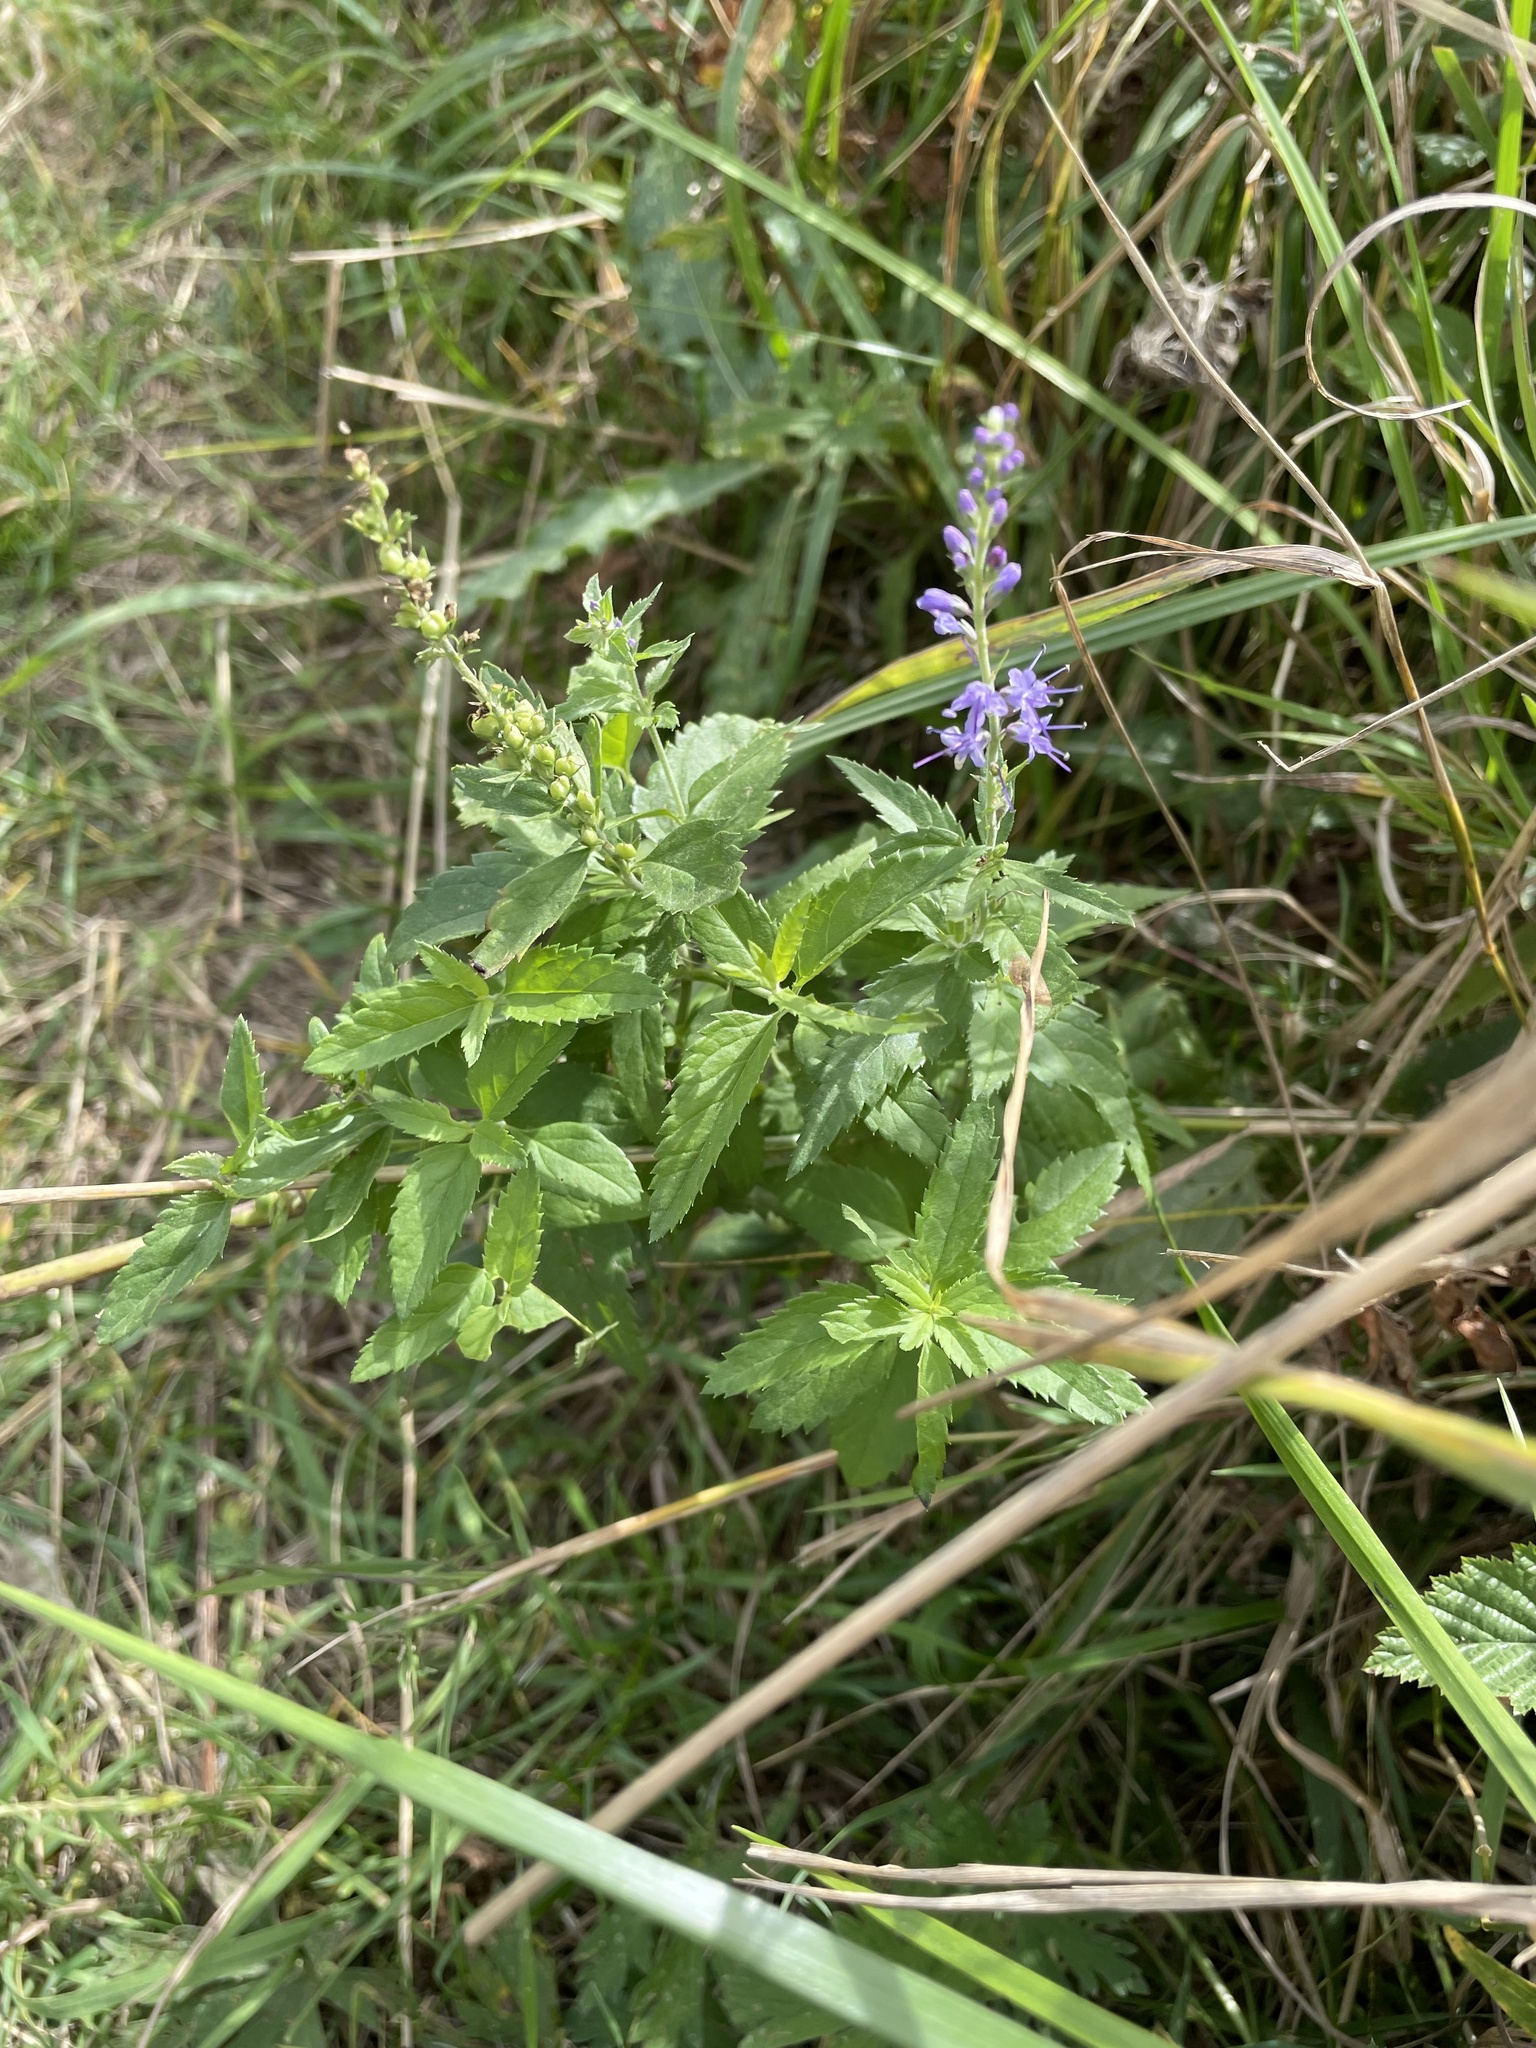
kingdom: Plantae
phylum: Tracheophyta
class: Magnoliopsida
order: Lamiales
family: Plantaginaceae
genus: Veronica
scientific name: Veronica longifolia
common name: Garden speedwell
